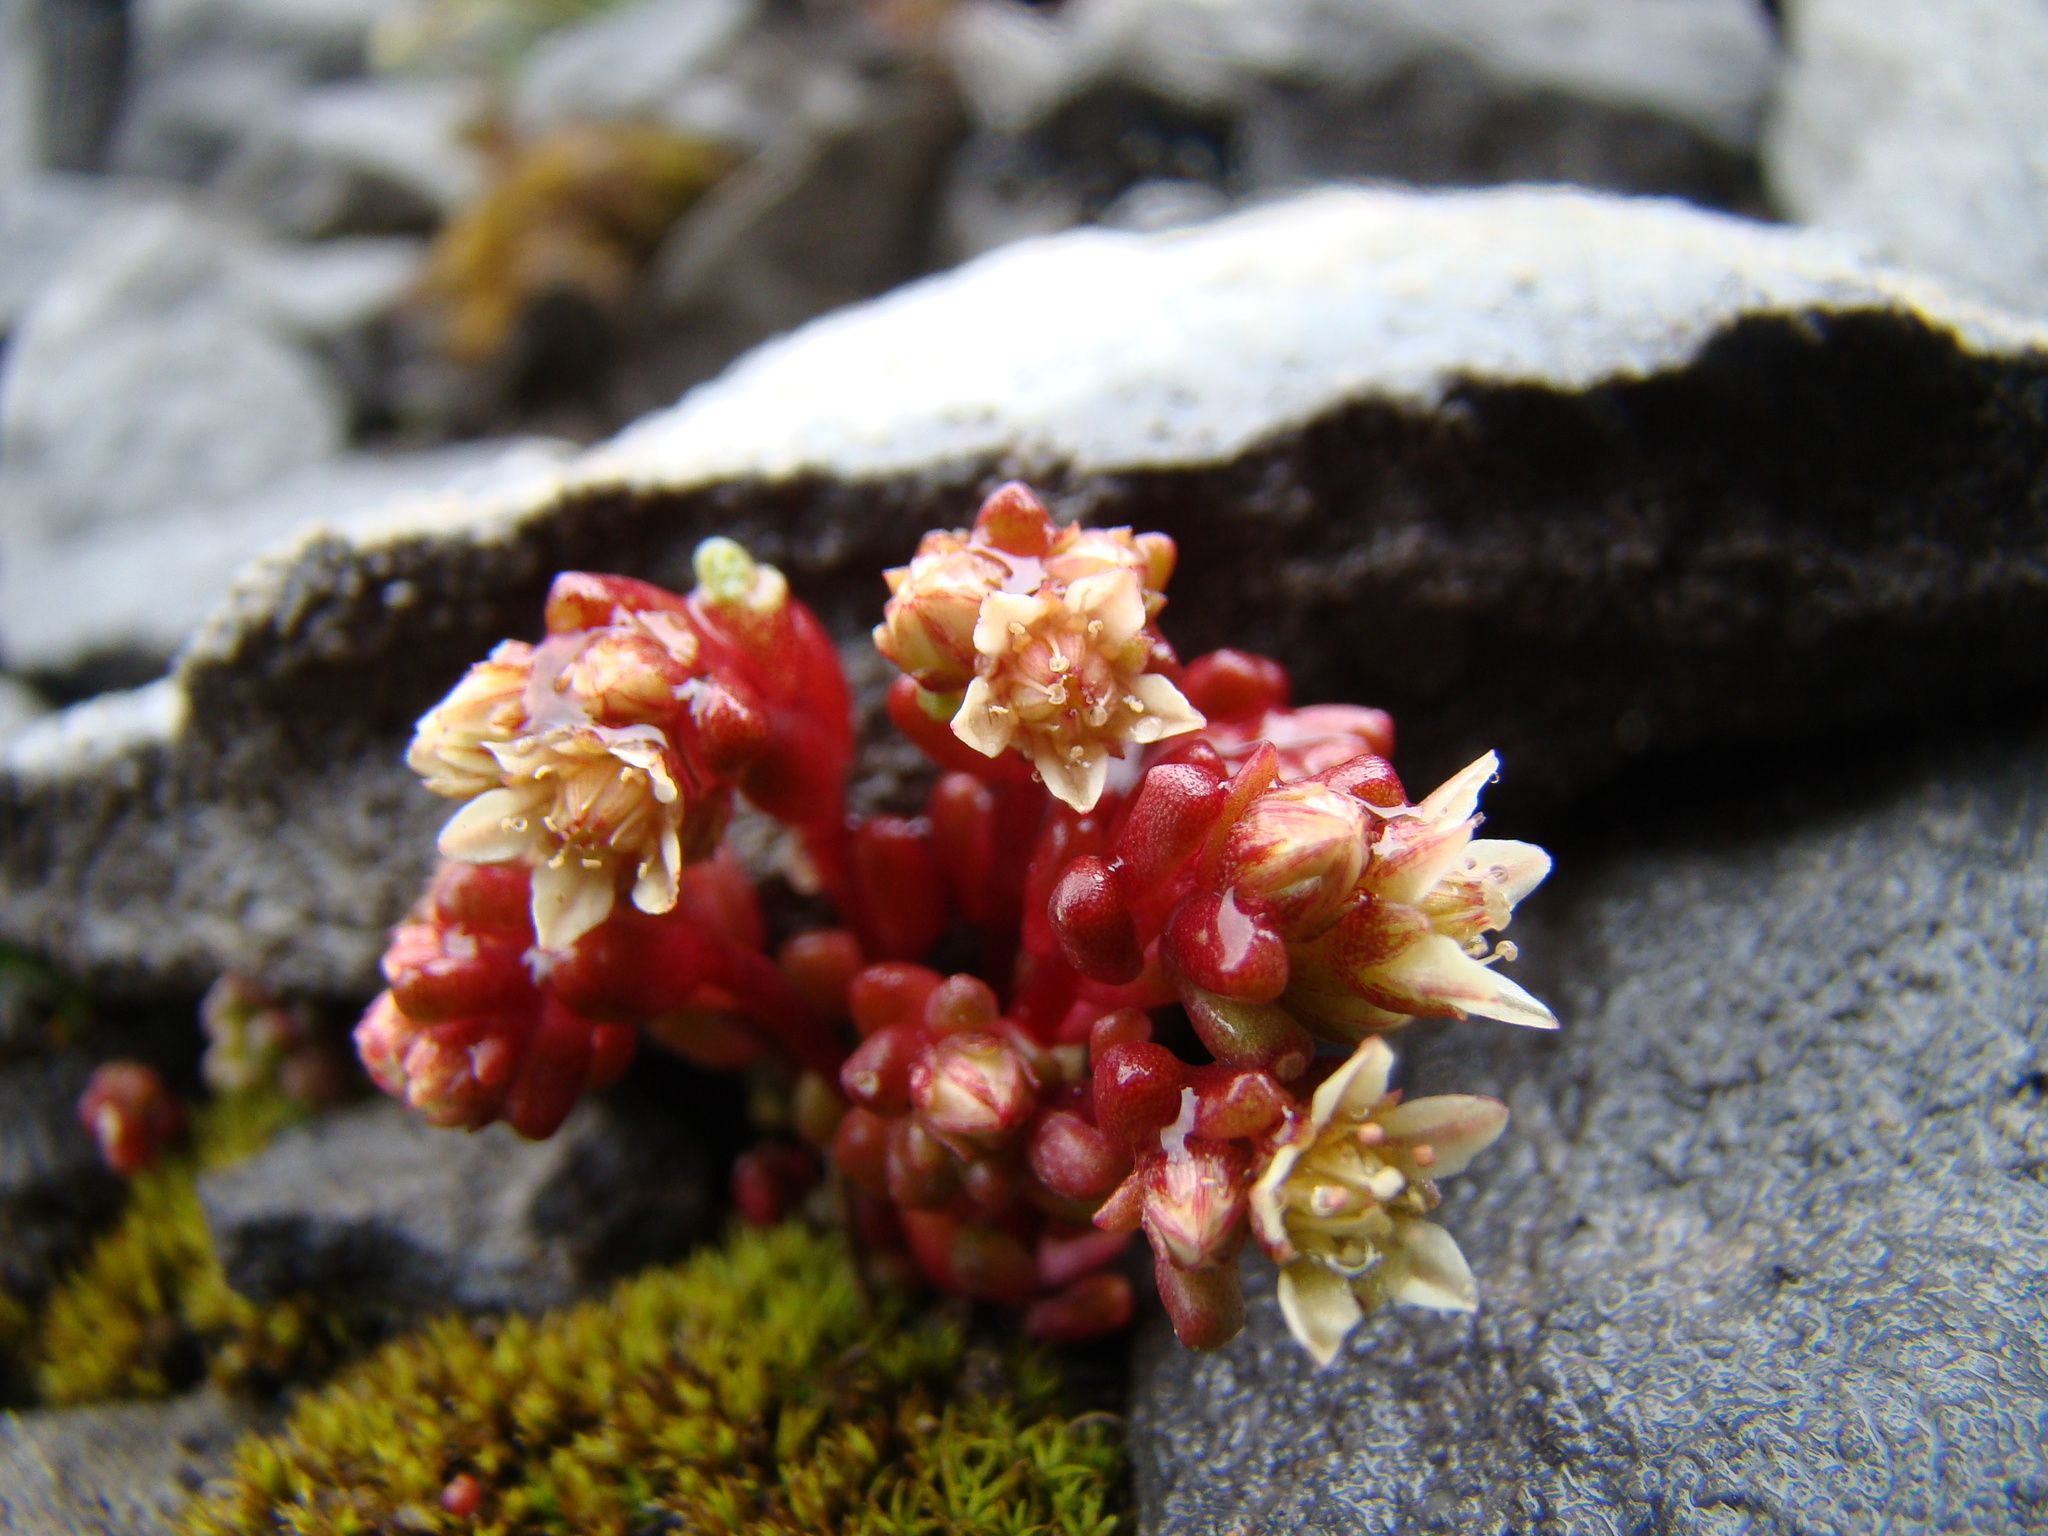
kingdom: Plantae
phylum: Tracheophyta
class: Magnoliopsida
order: Saxifragales
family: Crassulaceae
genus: Sedum
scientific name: Sedum atratum
